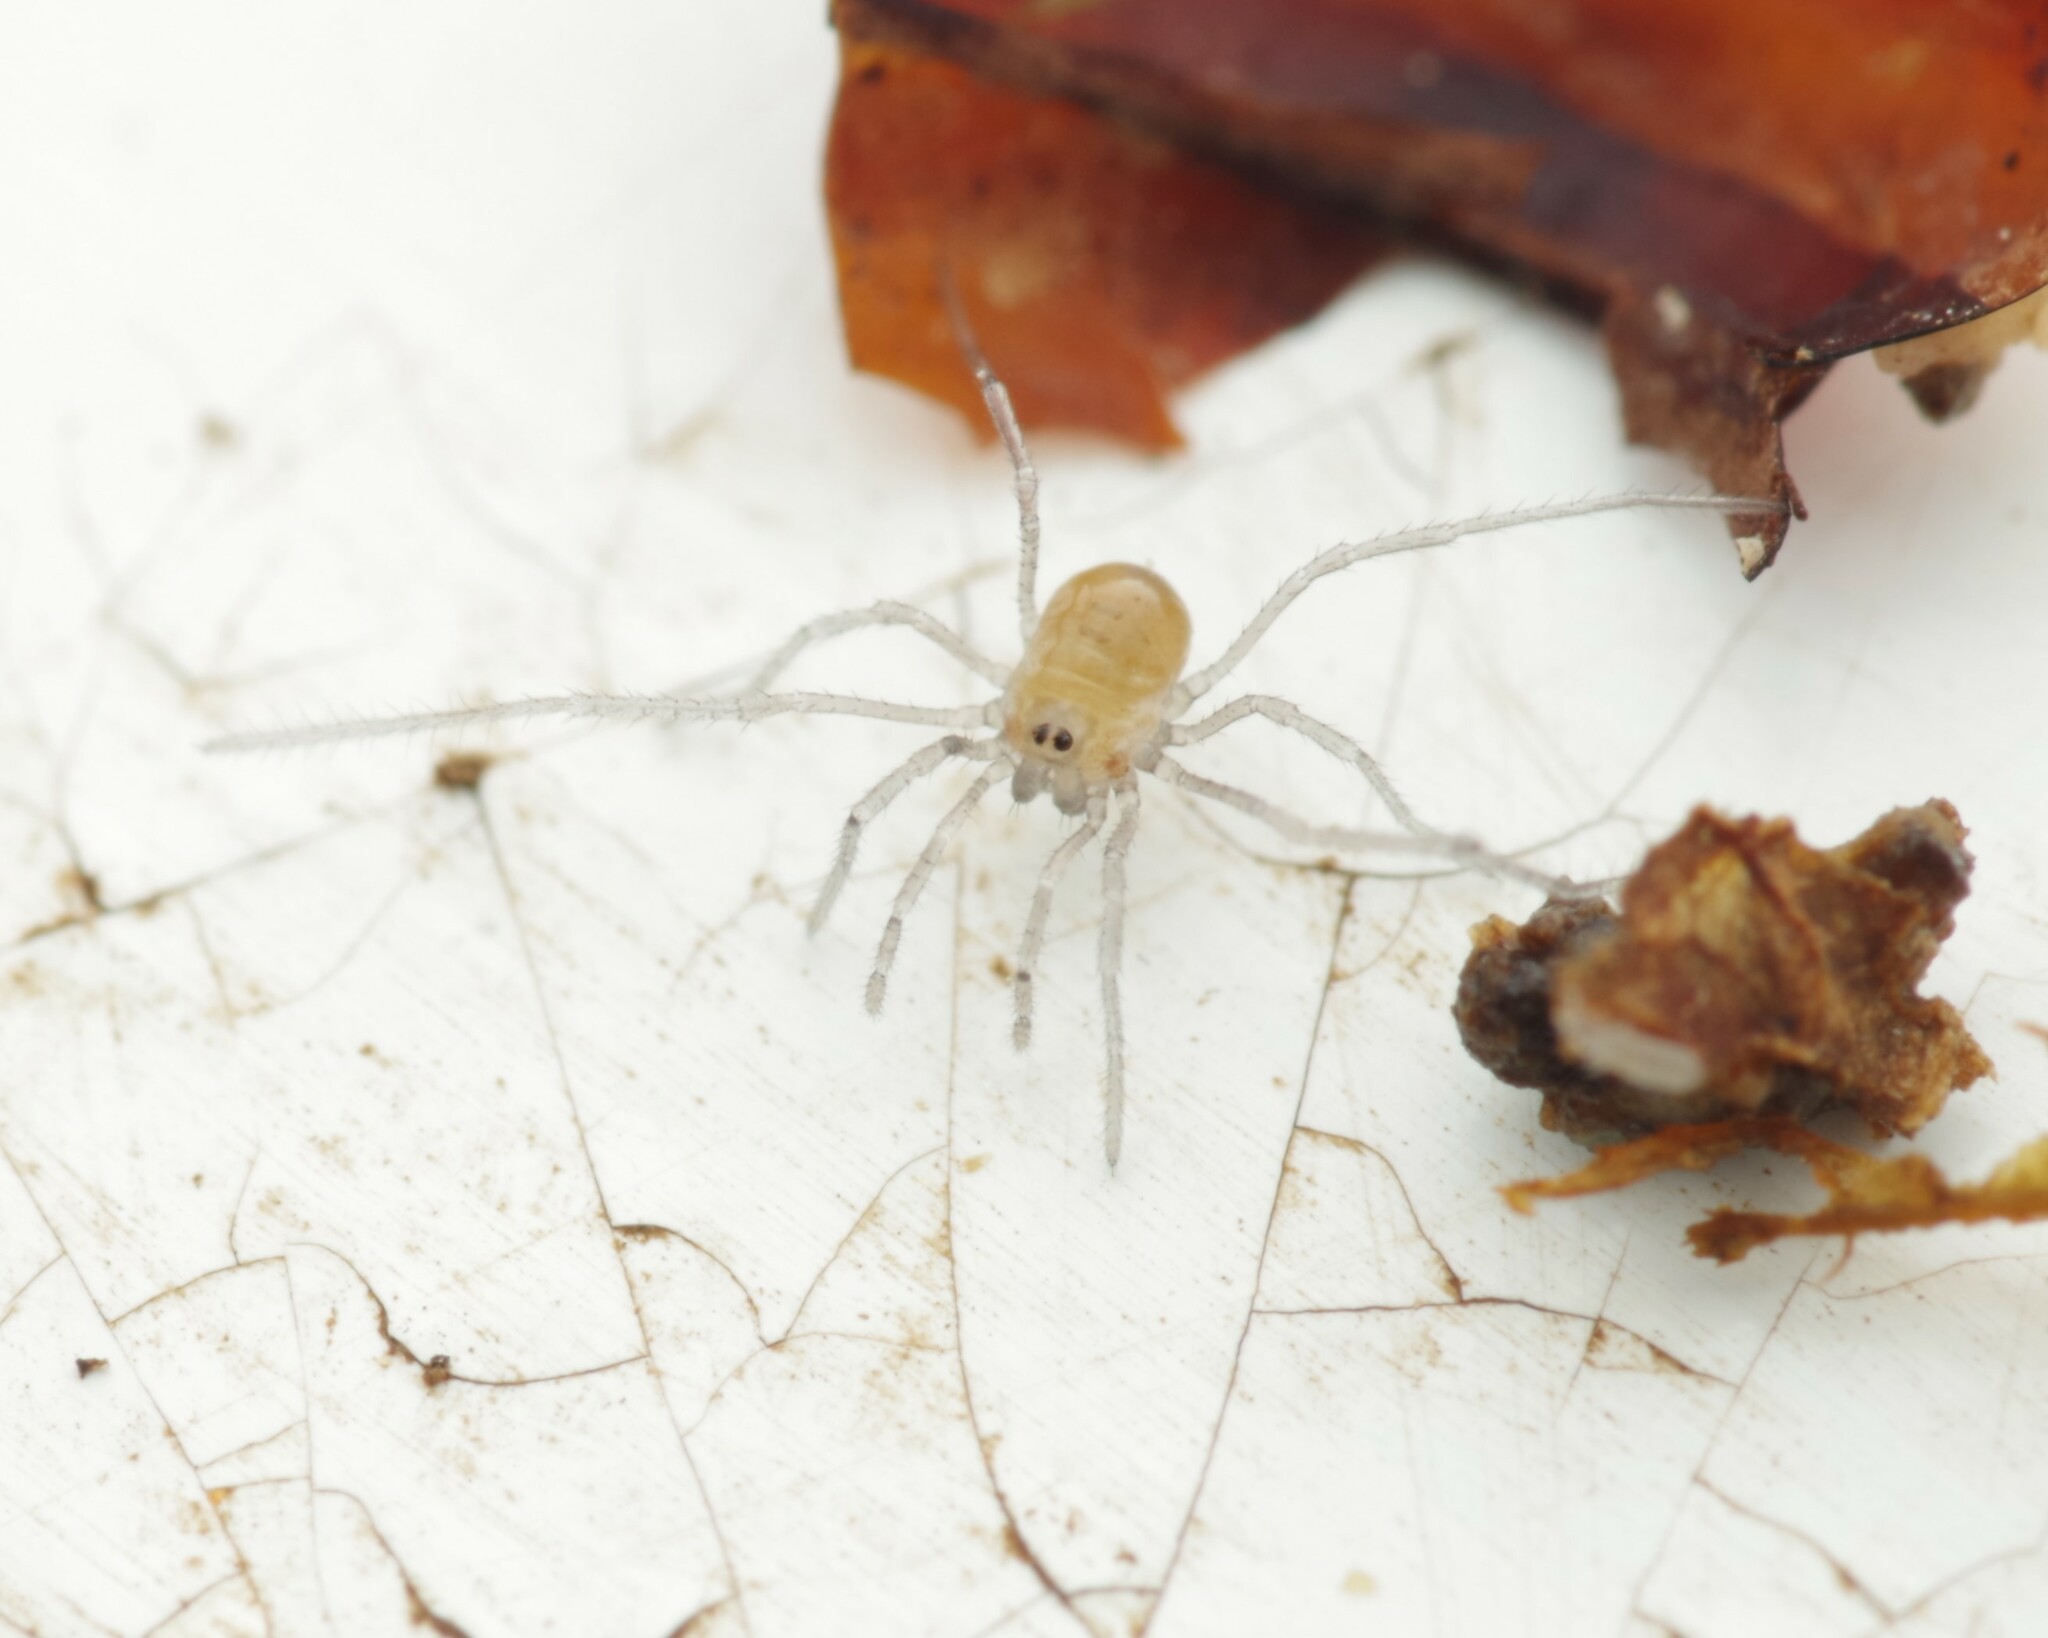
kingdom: Animalia
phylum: Arthropoda
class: Arachnida
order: Opiliones
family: Nemastomatidae
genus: Mitostoma
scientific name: Mitostoma chrysomelas
